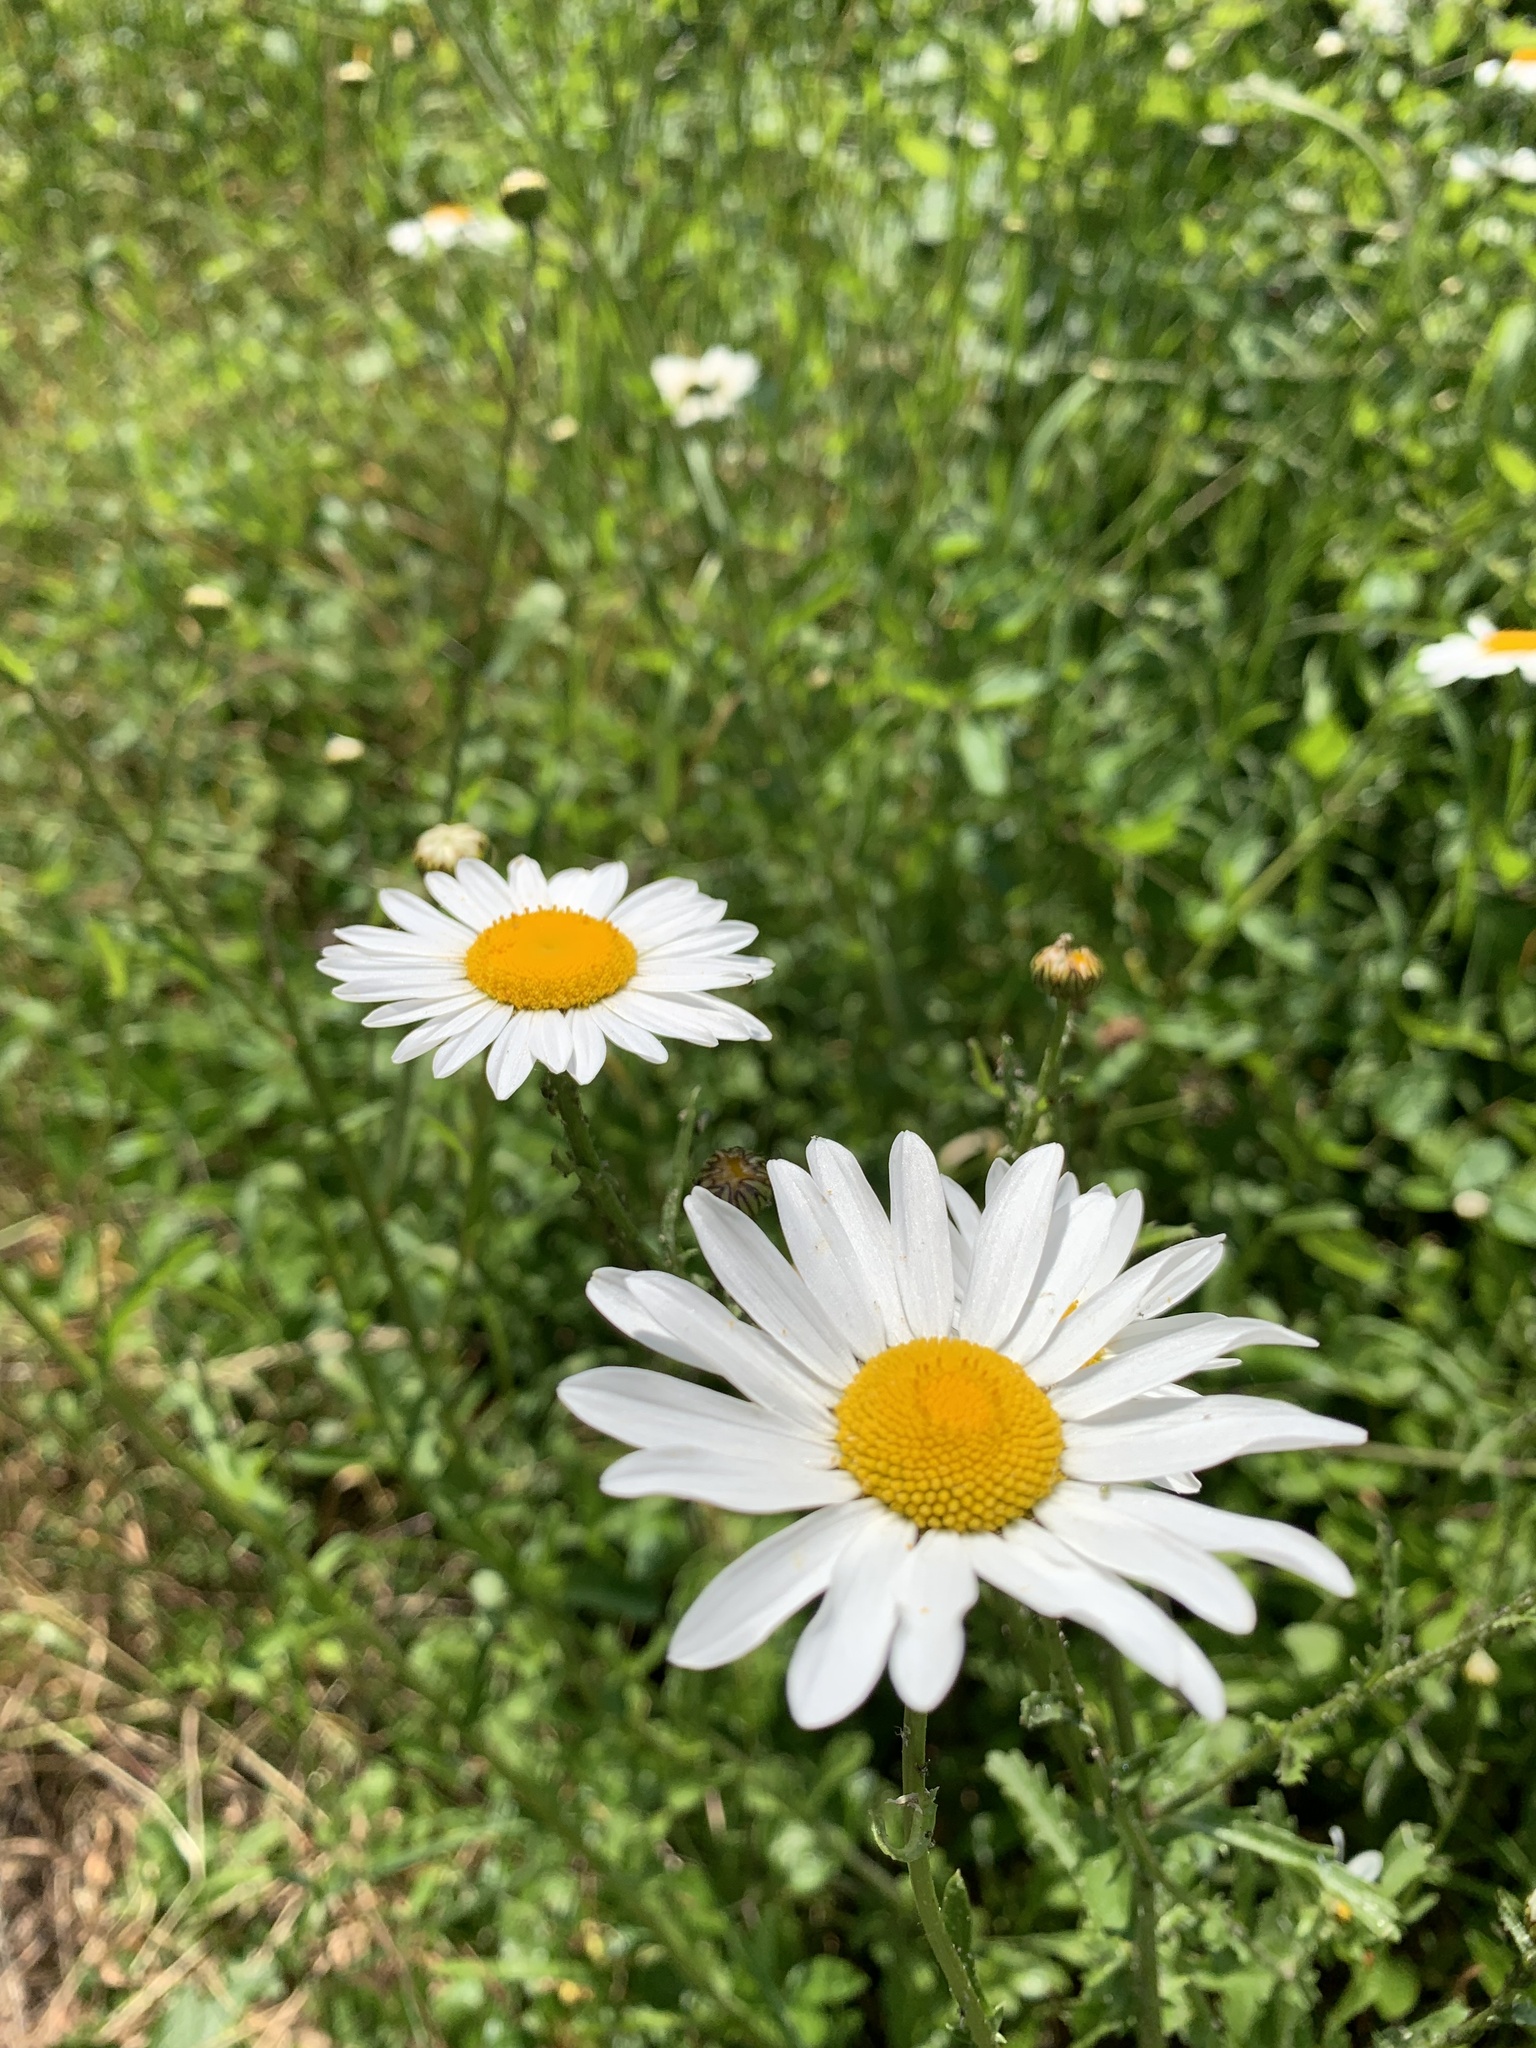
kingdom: Plantae
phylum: Tracheophyta
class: Magnoliopsida
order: Asterales
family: Asteraceae
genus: Leucanthemum
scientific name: Leucanthemum vulgare
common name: Oxeye daisy
